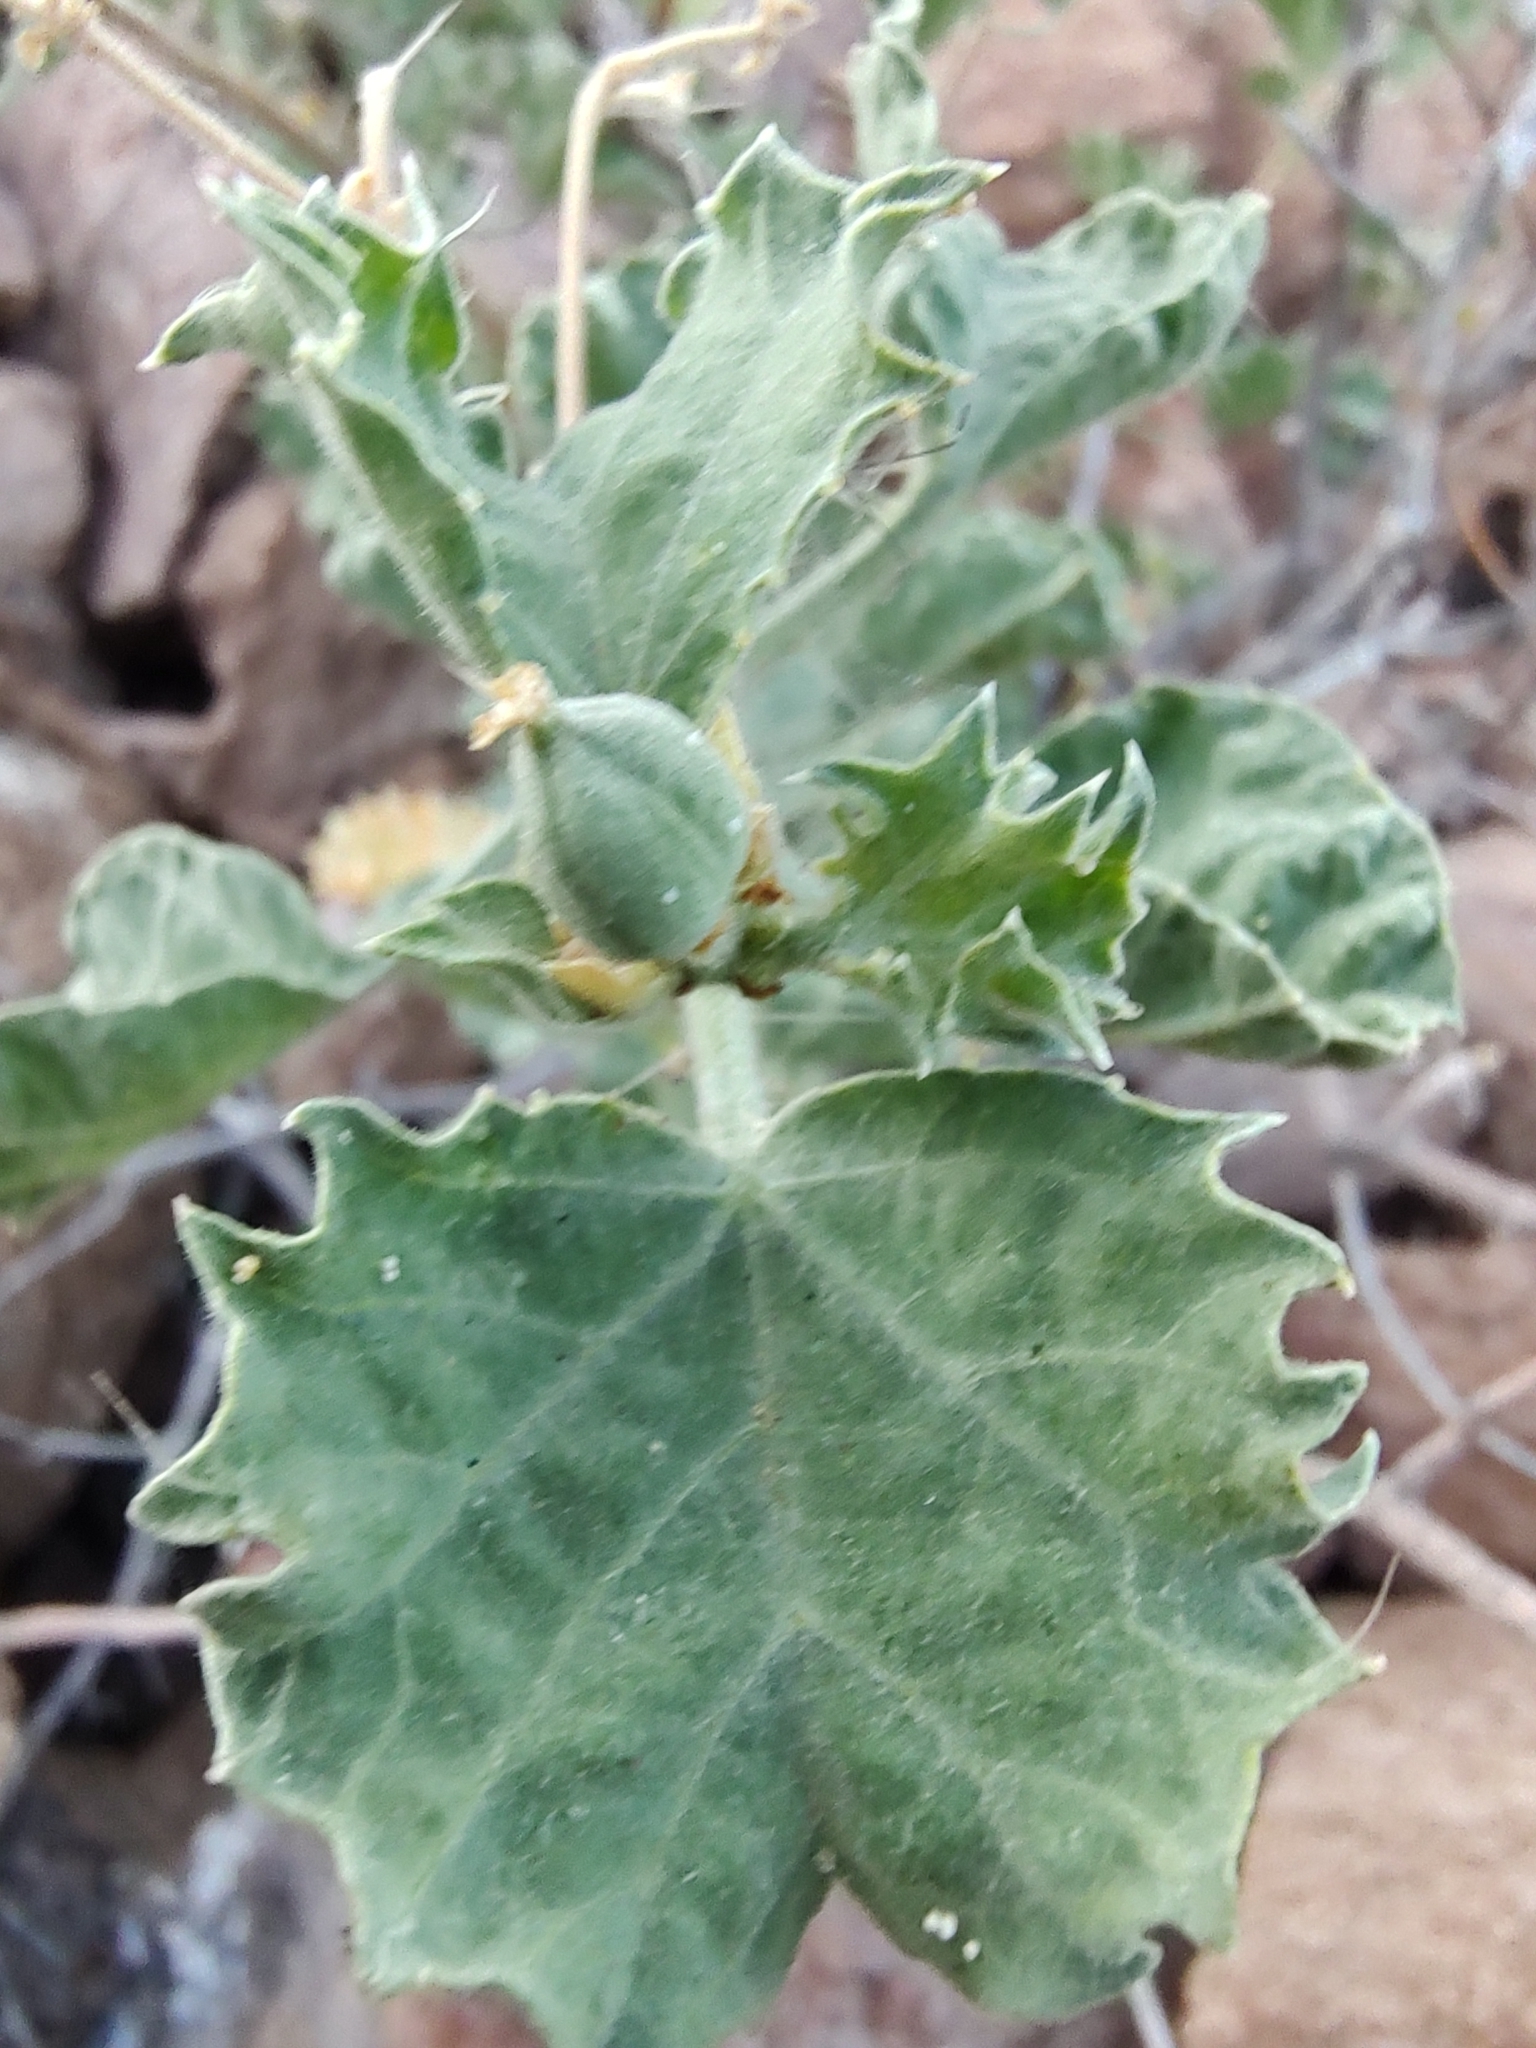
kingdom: Plantae
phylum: Tracheophyta
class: Magnoliopsida
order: Malpighiales
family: Euphorbiaceae
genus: Cnidoscolus
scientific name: Cnidoscolus palmeri
